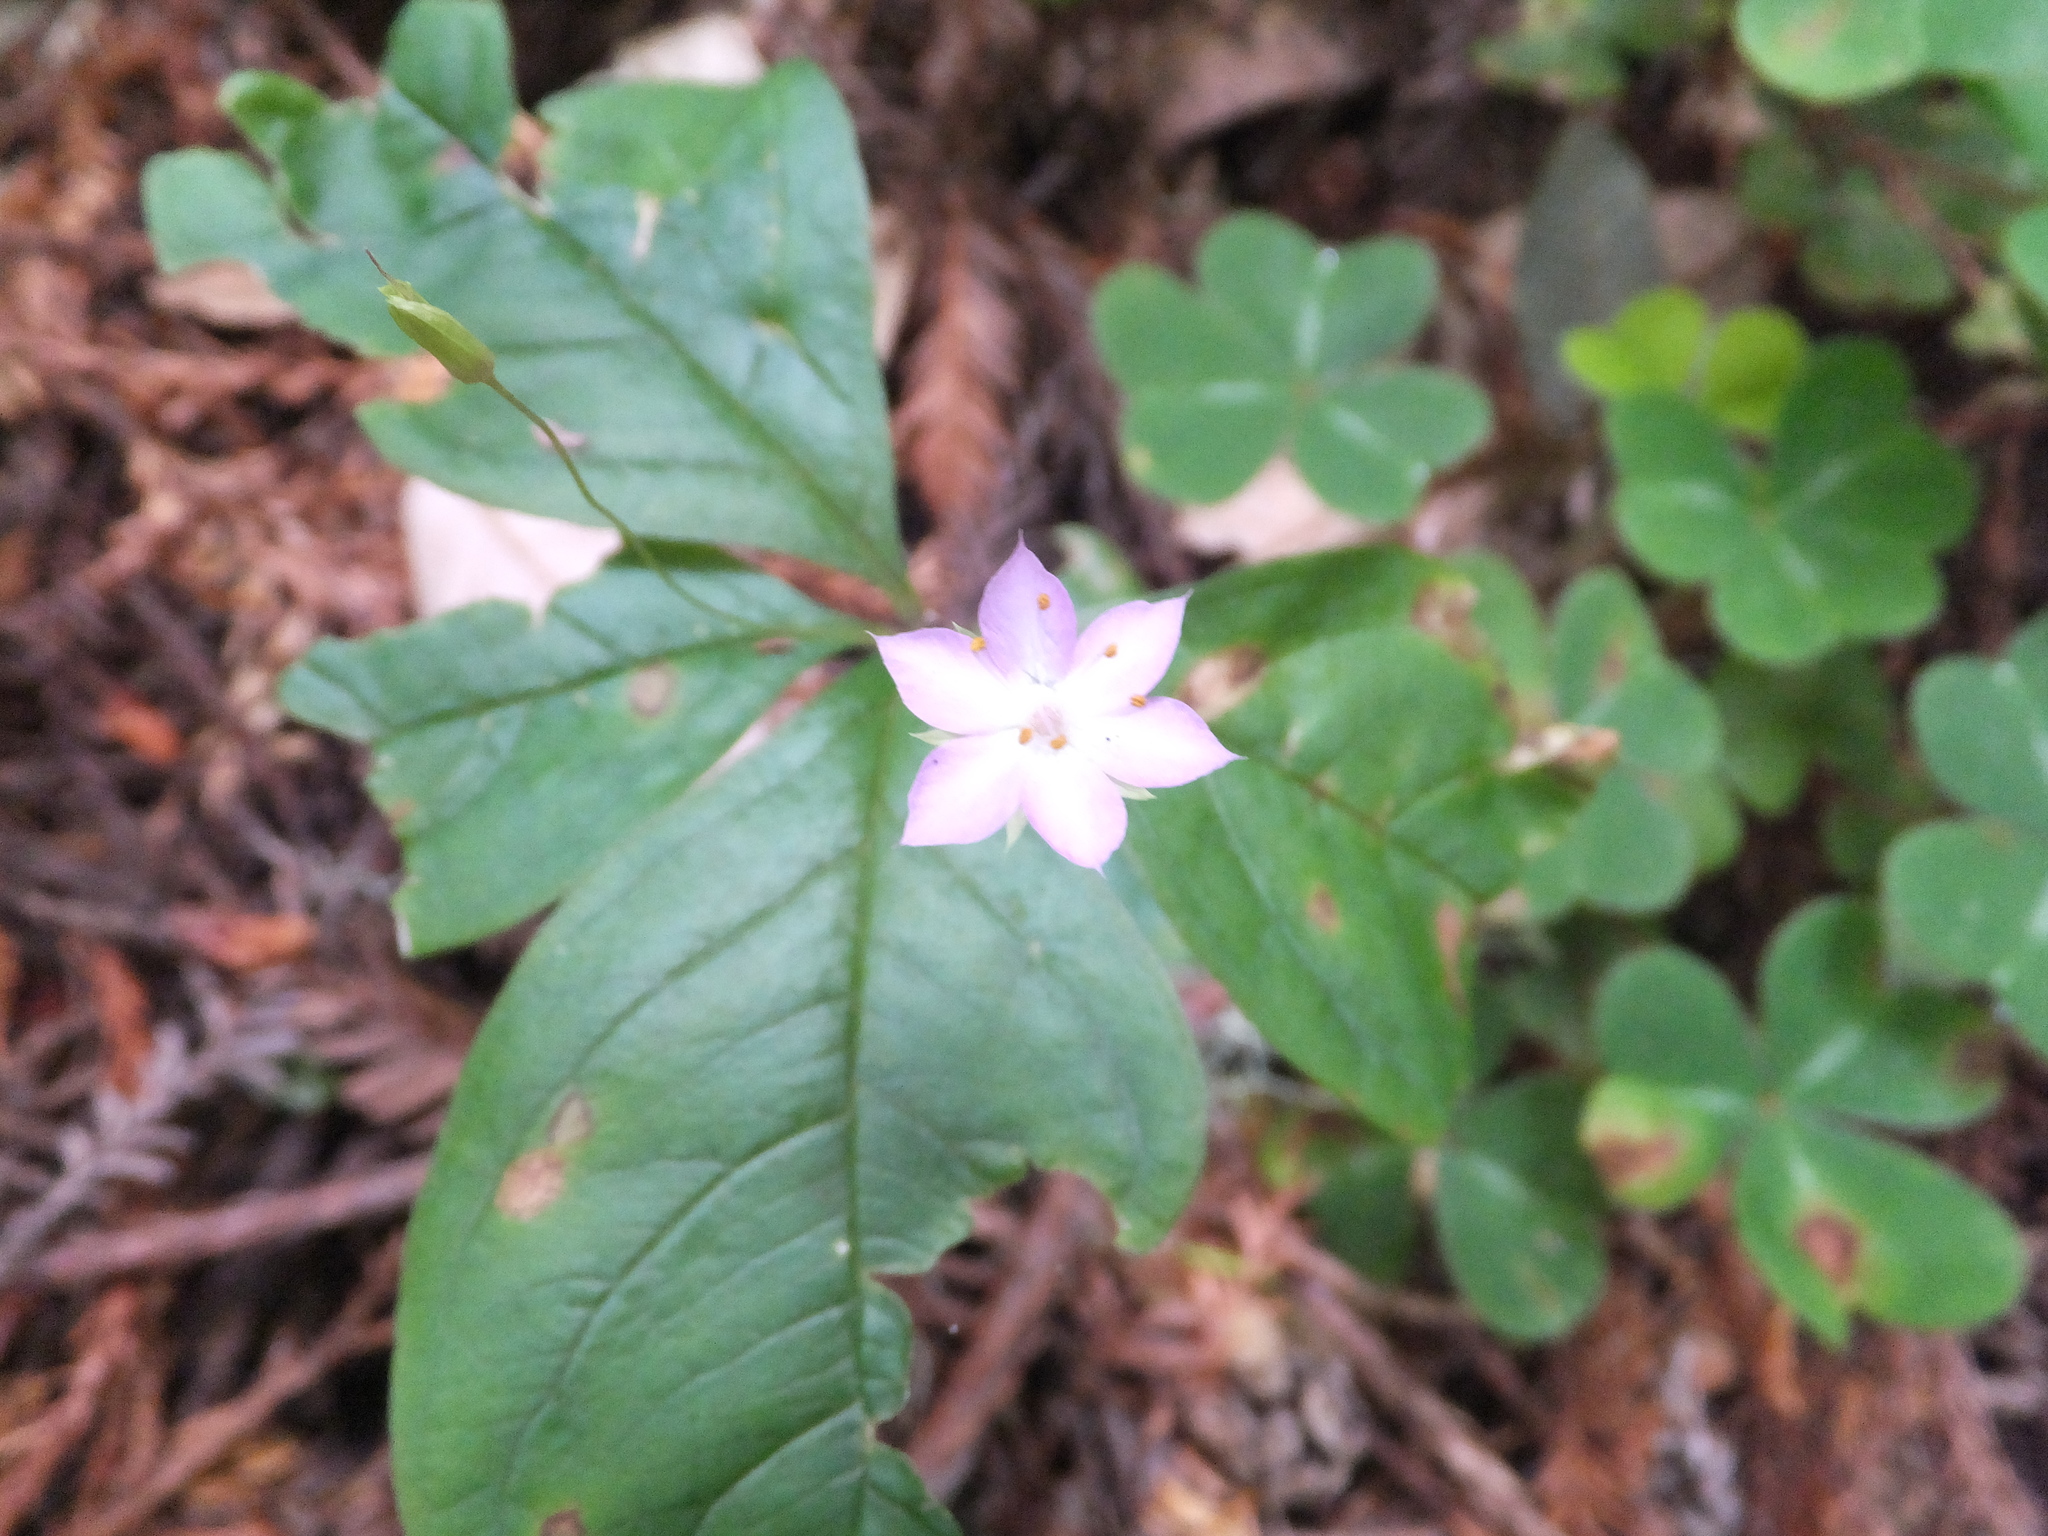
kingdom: Plantae
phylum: Tracheophyta
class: Magnoliopsida
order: Ericales
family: Primulaceae
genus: Lysimachia
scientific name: Lysimachia latifolia
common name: Pacific starflower
